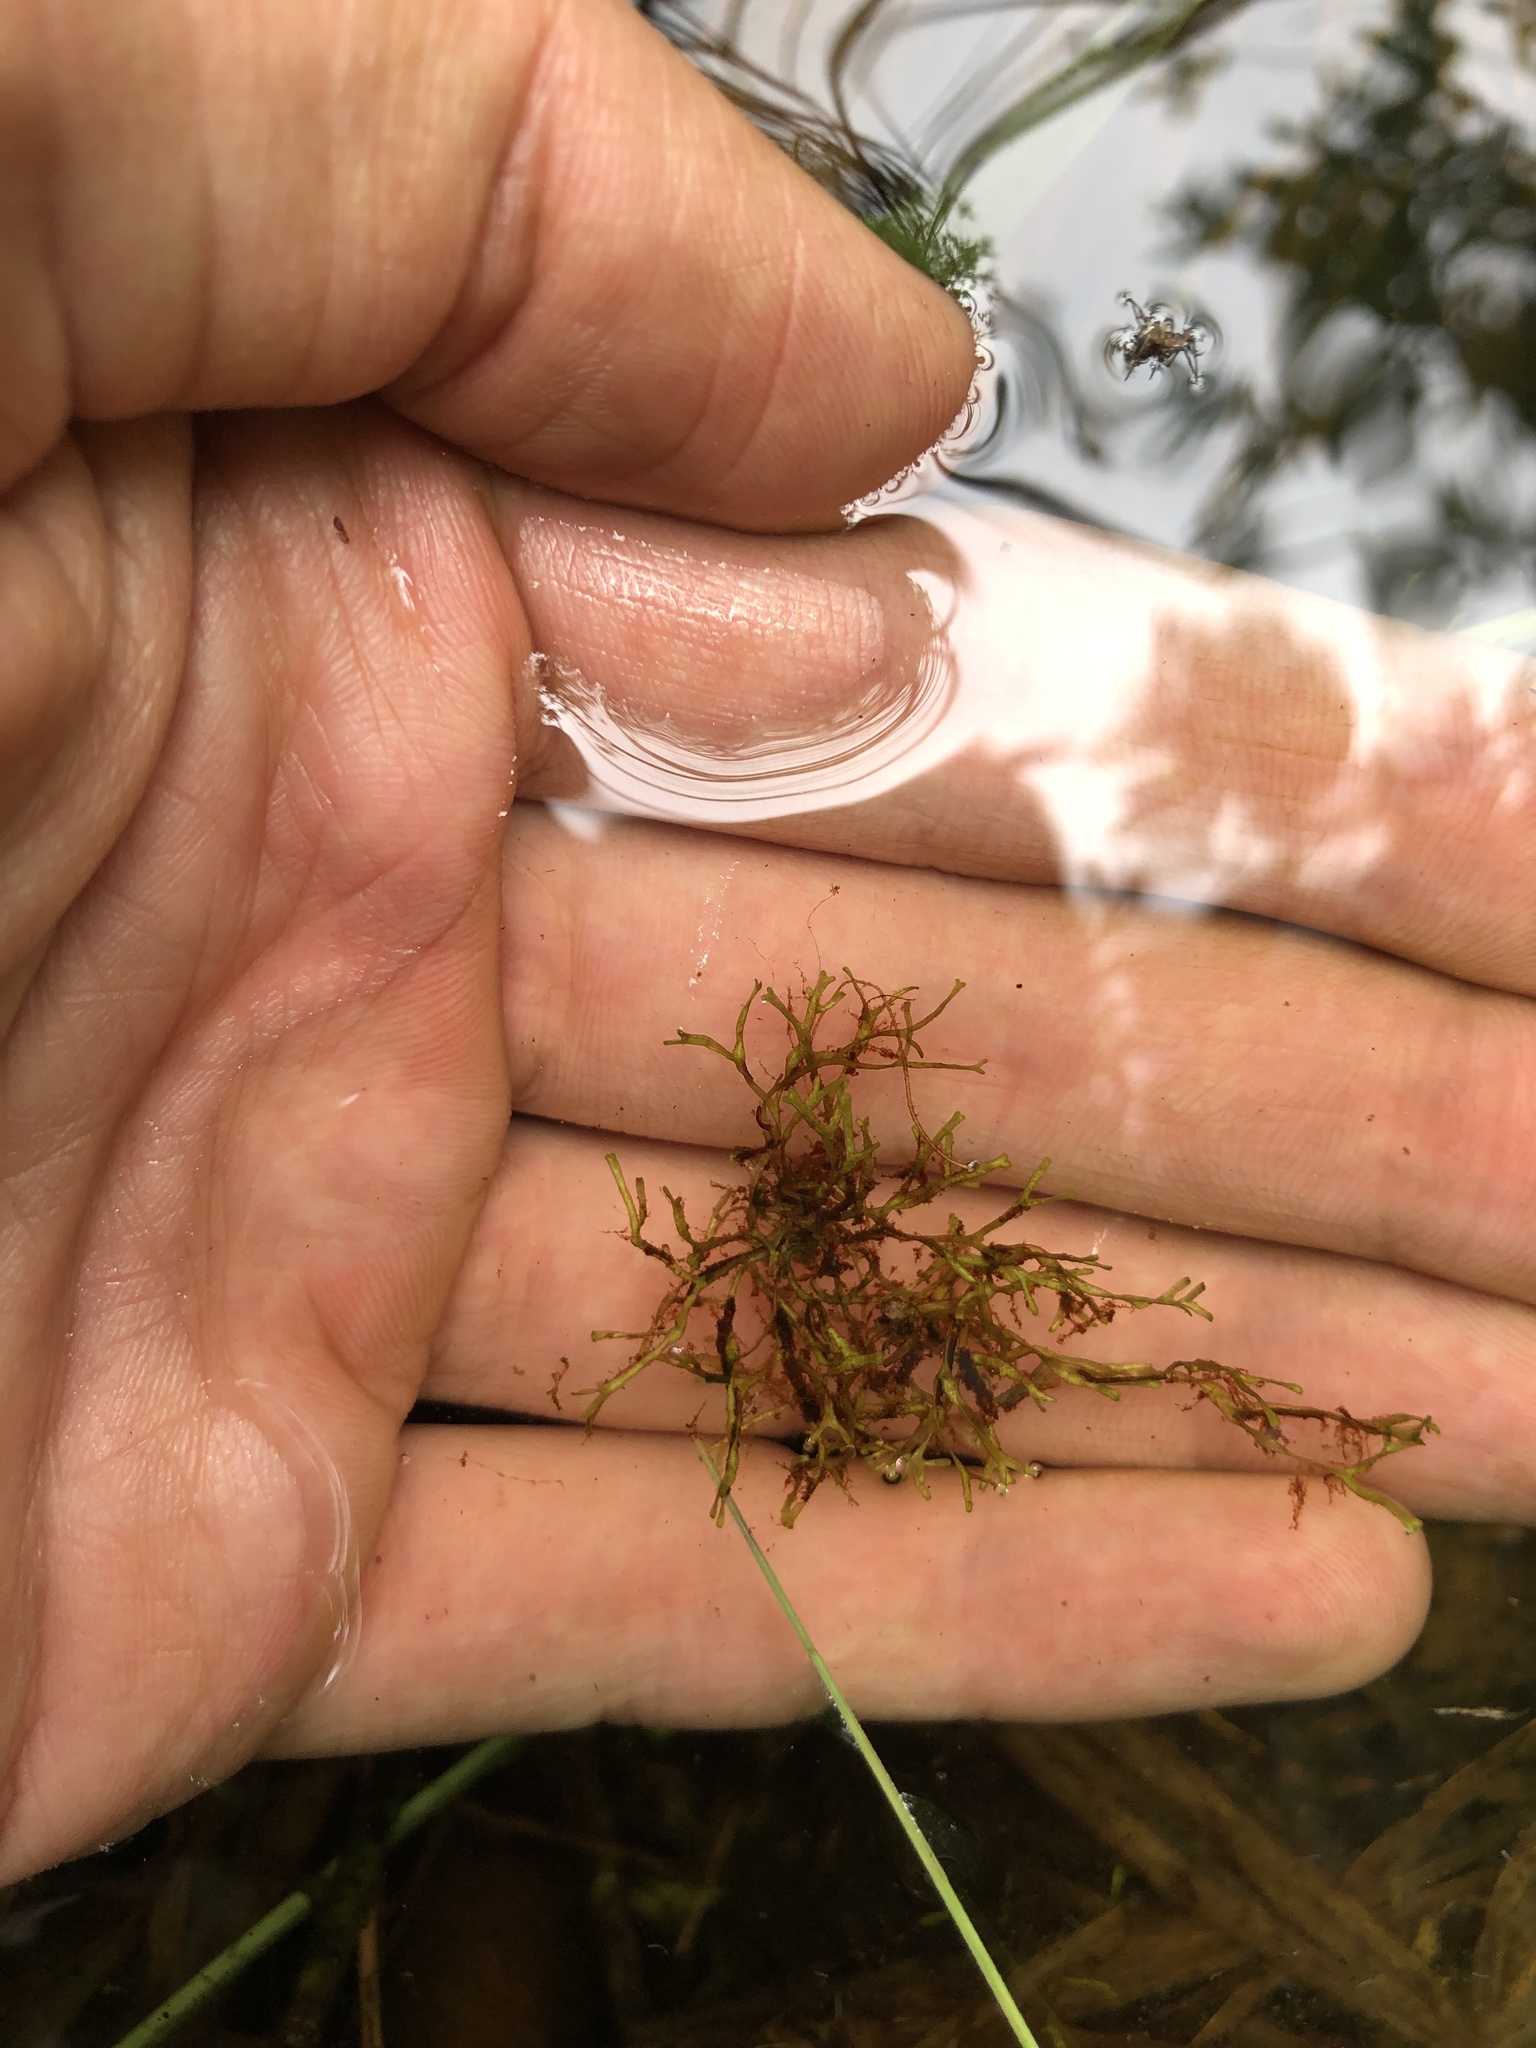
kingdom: Plantae
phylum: Marchantiophyta
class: Marchantiopsida
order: Marchantiales
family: Ricciaceae
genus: Riccia
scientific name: Riccia fluitans
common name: Floating crystalwort
